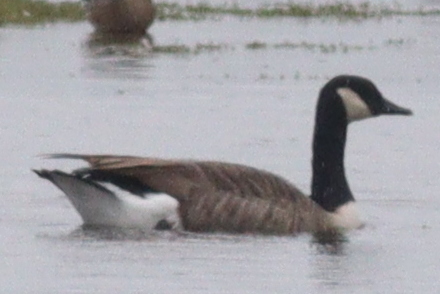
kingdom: Animalia
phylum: Chordata
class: Aves
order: Anseriformes
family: Anatidae
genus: Branta
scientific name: Branta canadensis
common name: Canada goose
